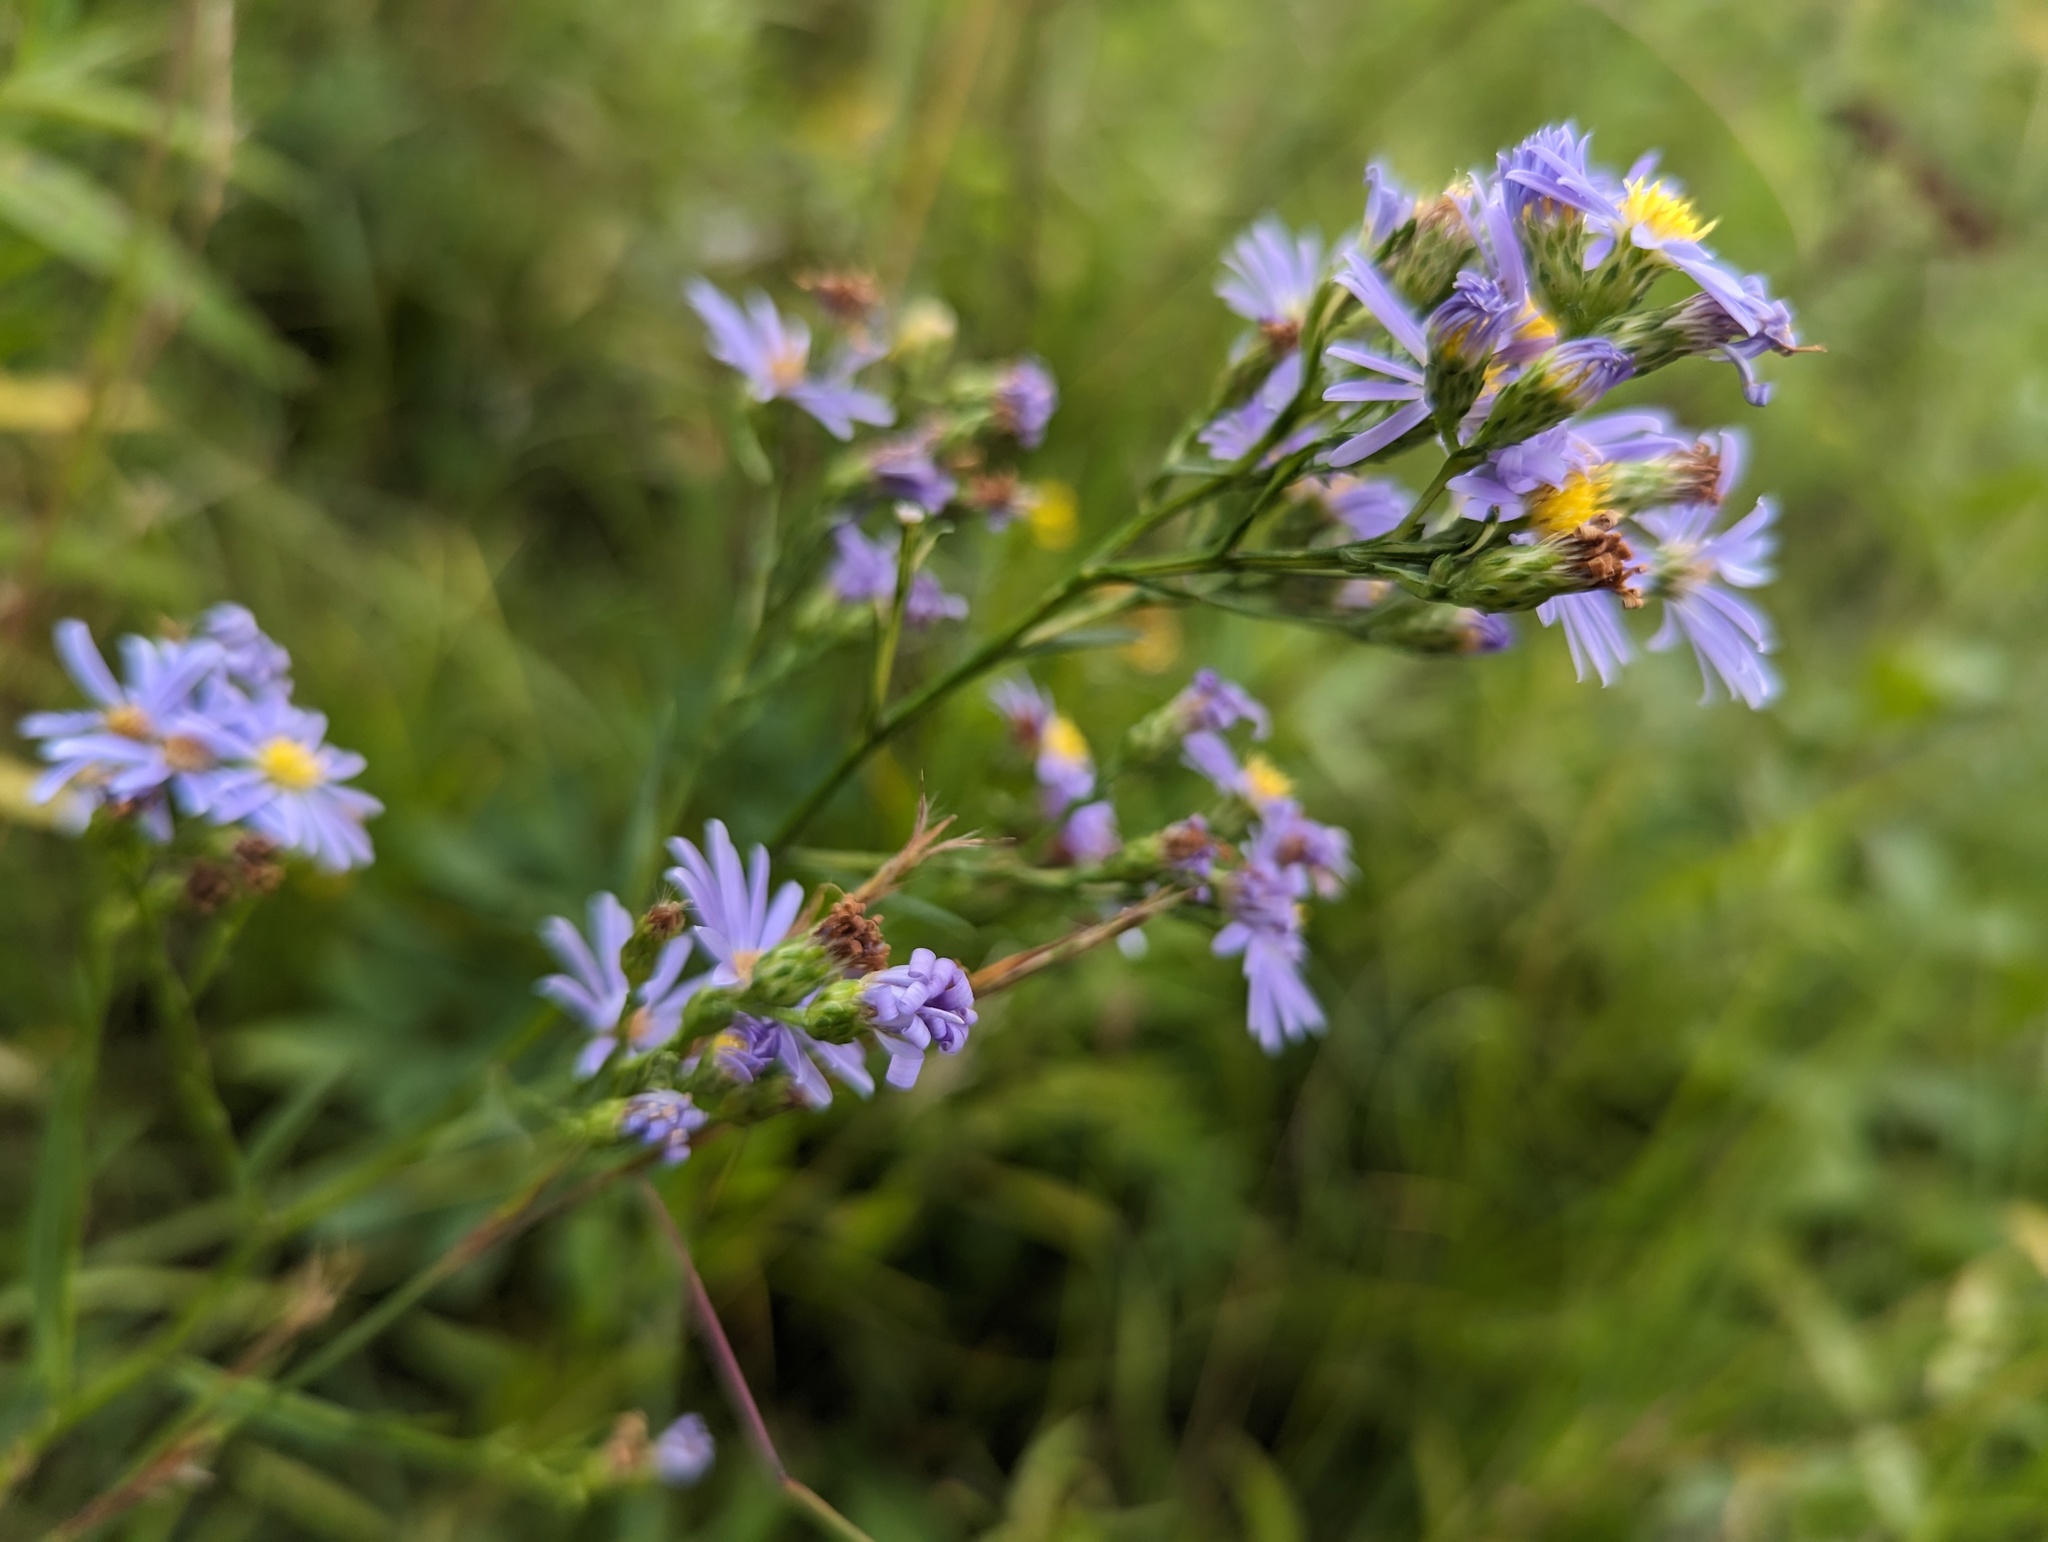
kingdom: Plantae
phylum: Tracheophyta
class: Magnoliopsida
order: Asterales
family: Asteraceae
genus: Symphyotrichum
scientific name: Symphyotrichum oolentangiense
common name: Azure aster
